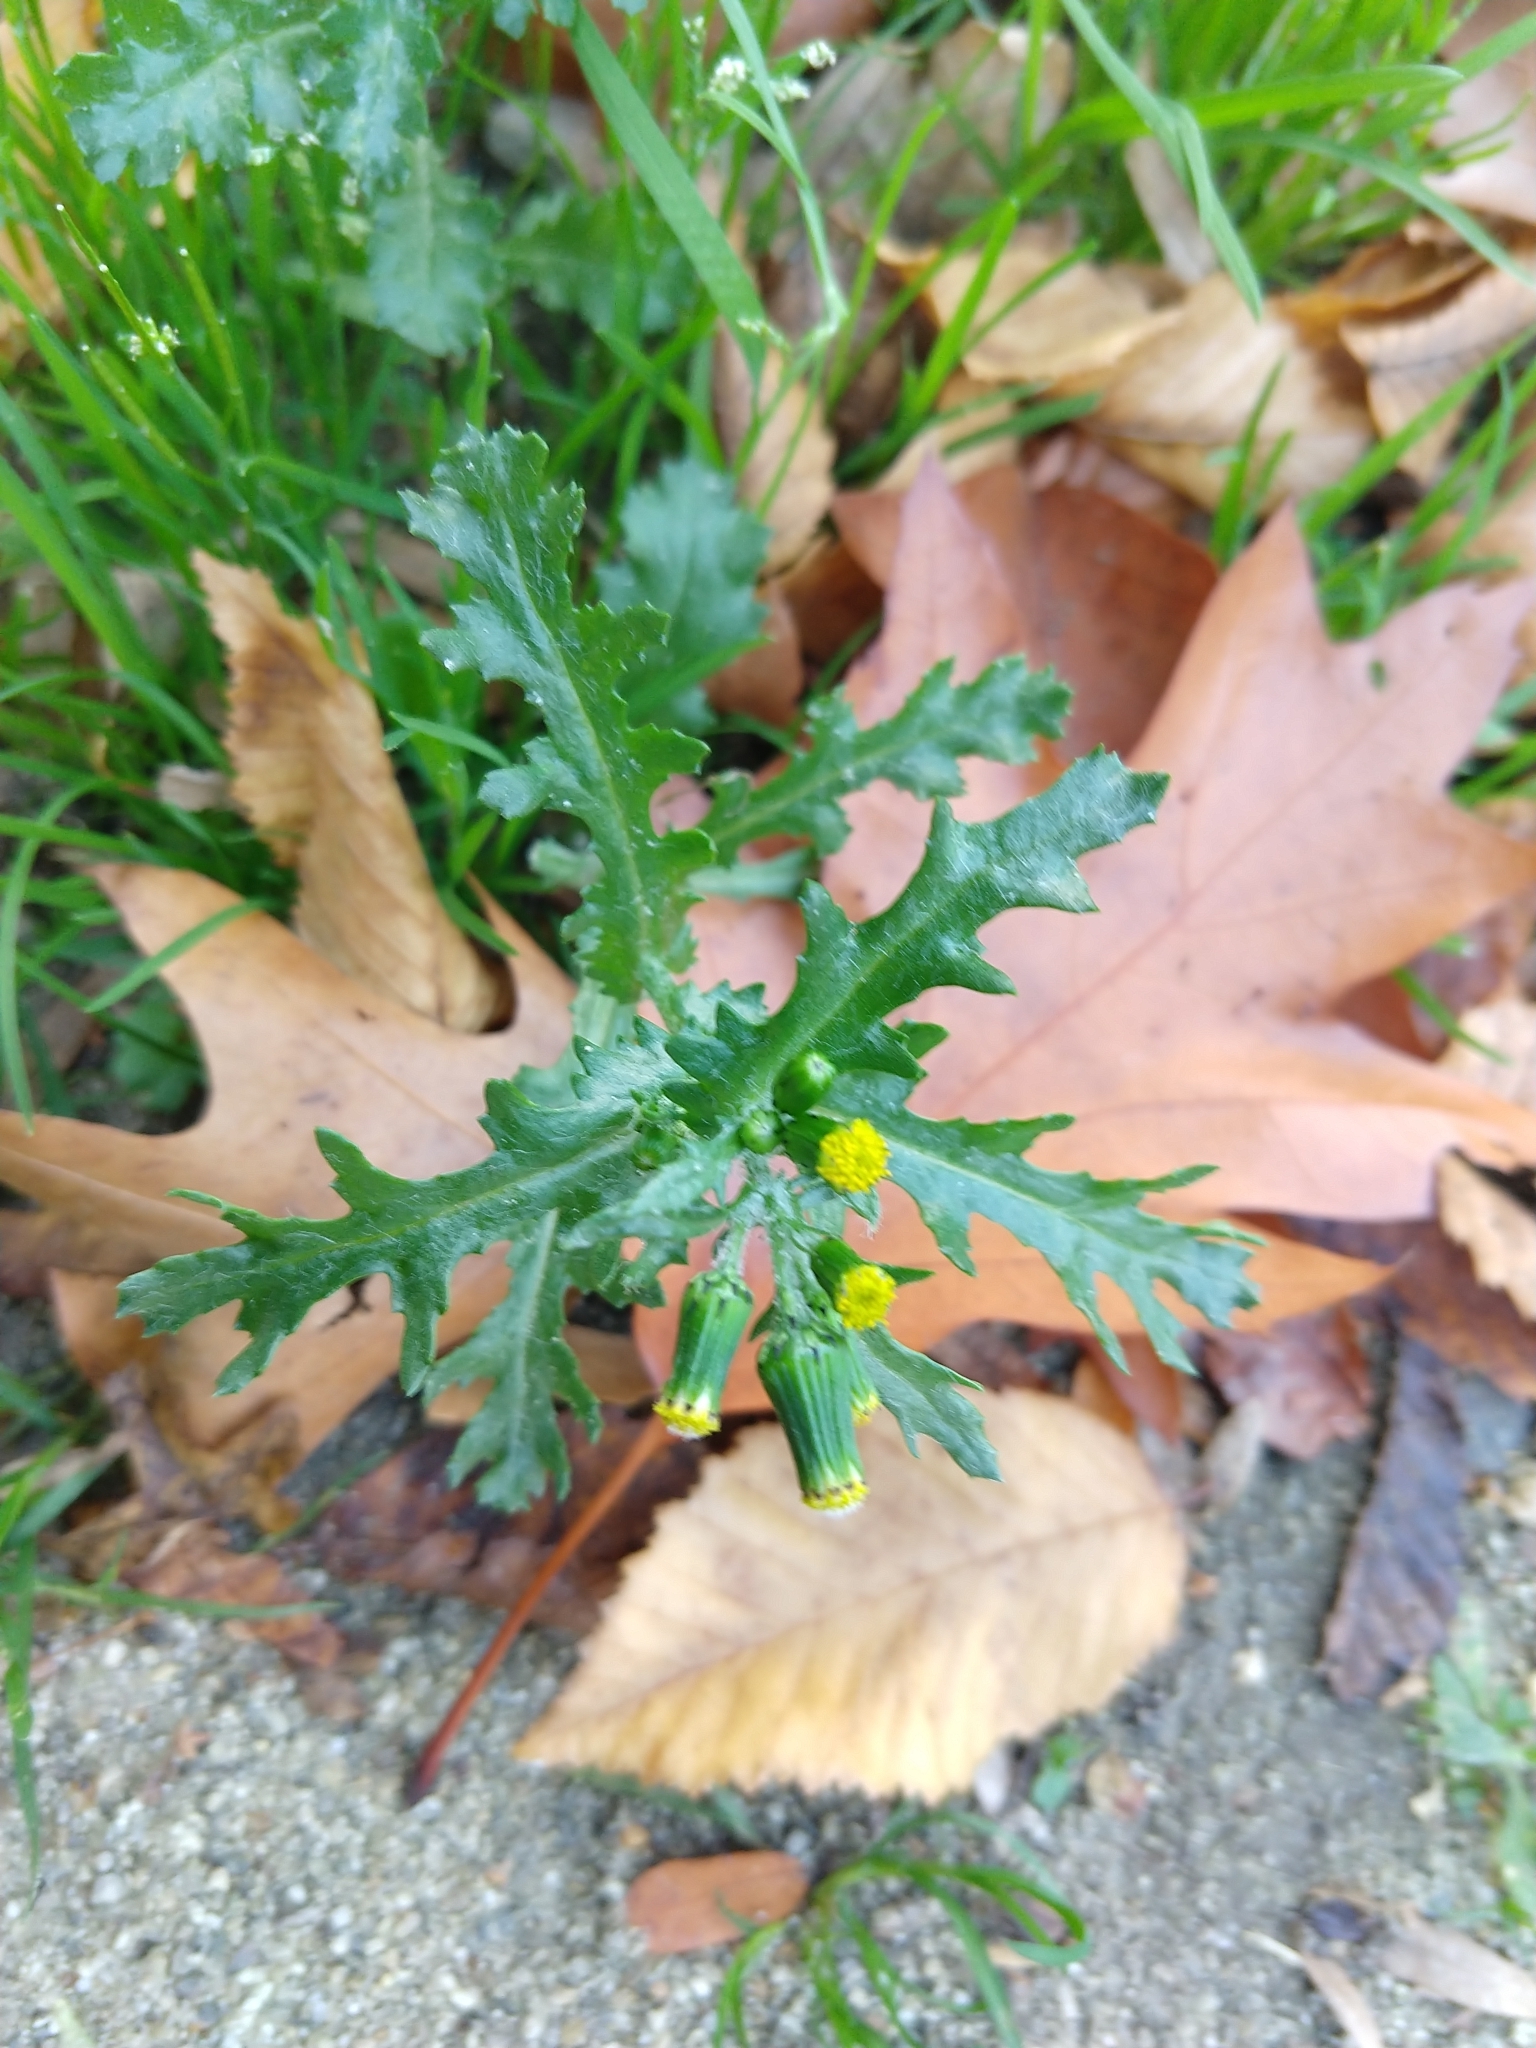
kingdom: Plantae
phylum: Tracheophyta
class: Magnoliopsida
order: Asterales
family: Asteraceae
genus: Senecio
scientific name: Senecio vulgaris
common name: Old-man-in-the-spring
